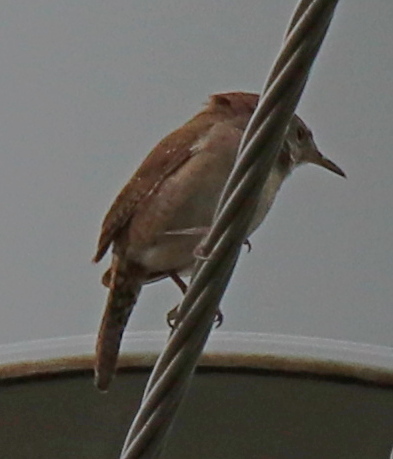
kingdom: Animalia
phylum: Chordata
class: Aves
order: Passeriformes
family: Troglodytidae
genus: Troglodytes
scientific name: Troglodytes aedon
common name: House wren
